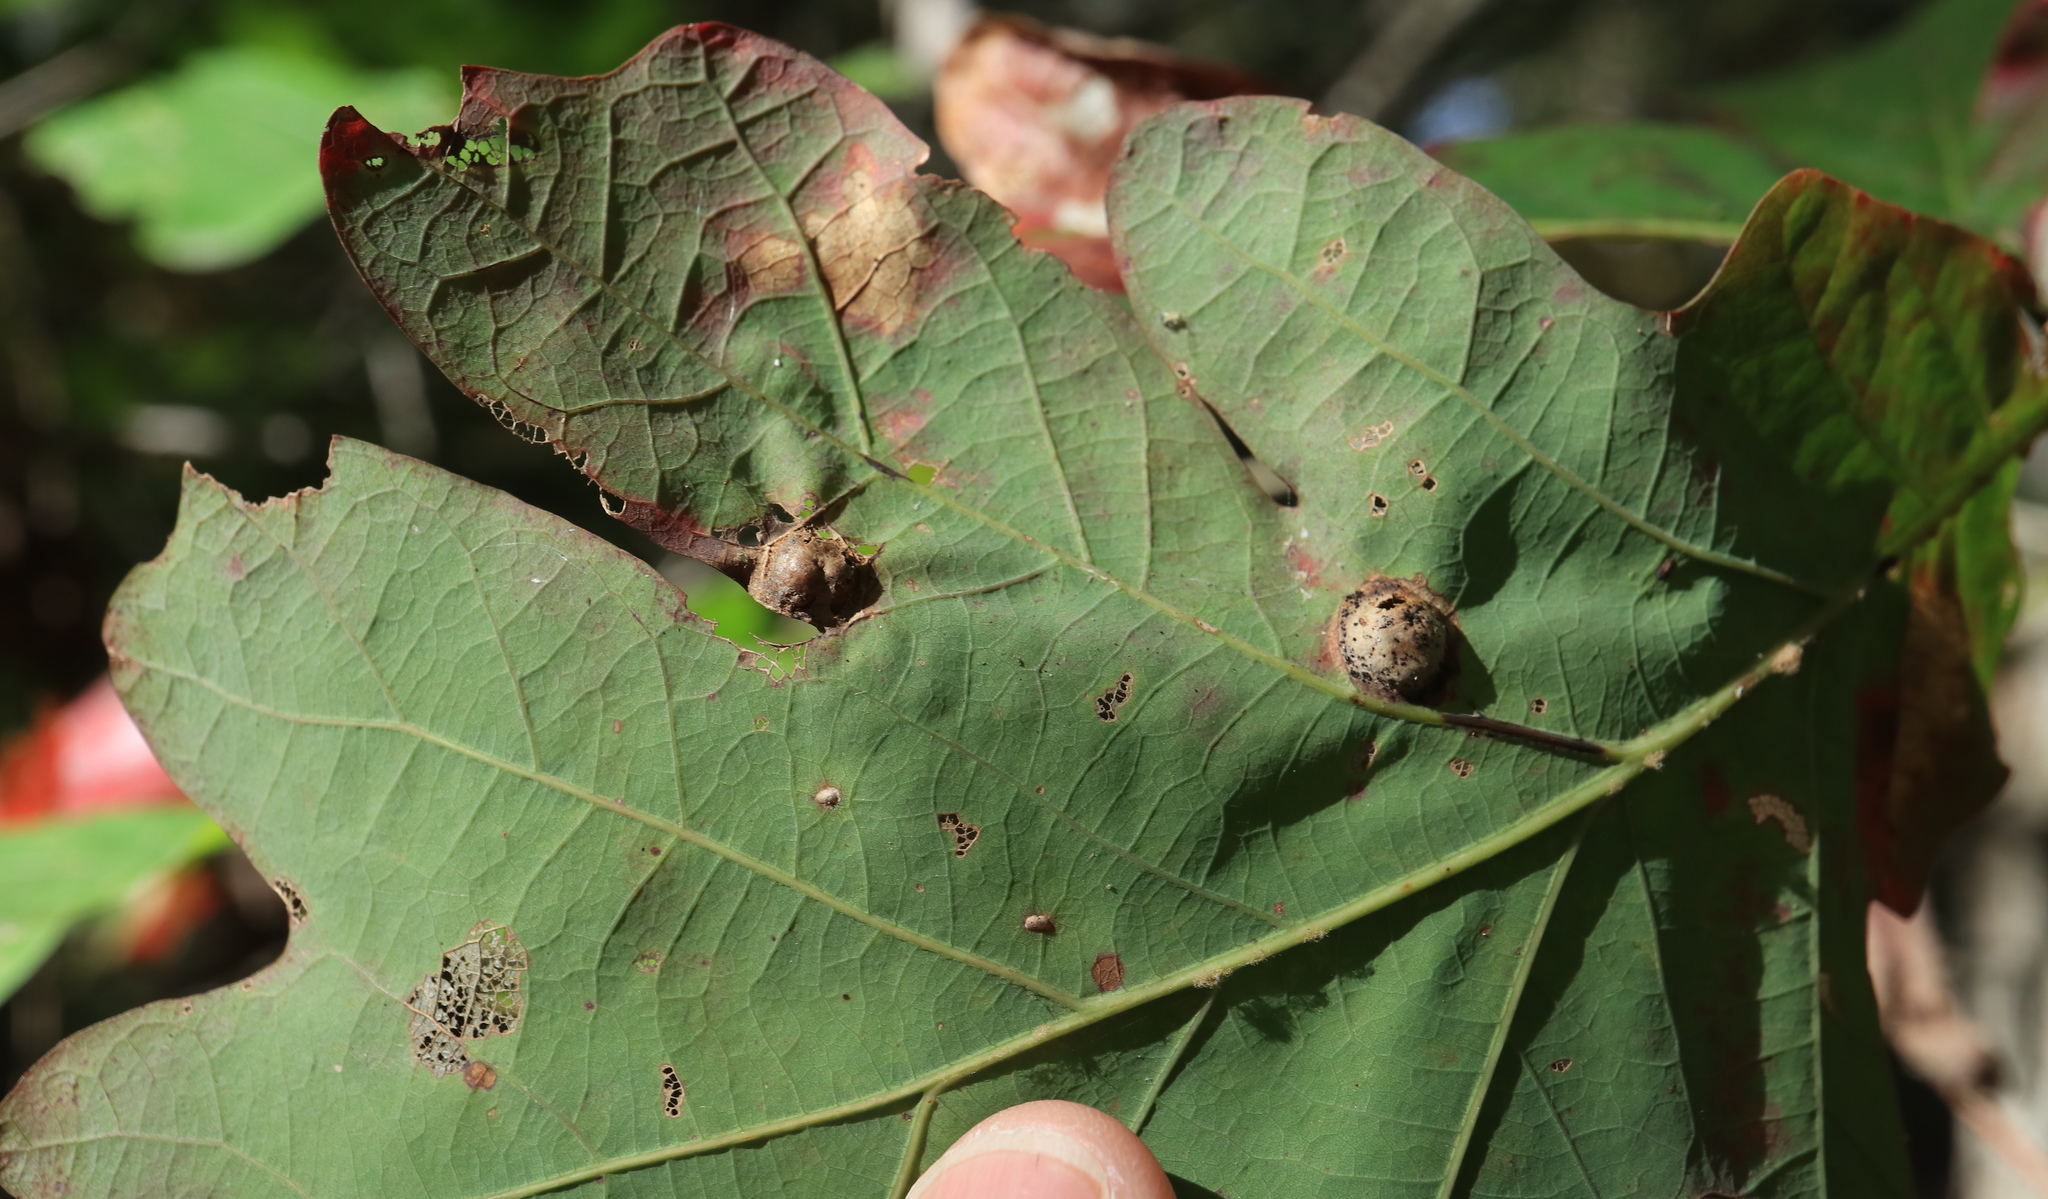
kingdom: Animalia
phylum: Arthropoda
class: Insecta
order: Hymenoptera
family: Cynipidae
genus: Callirhytis
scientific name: Callirhytis
